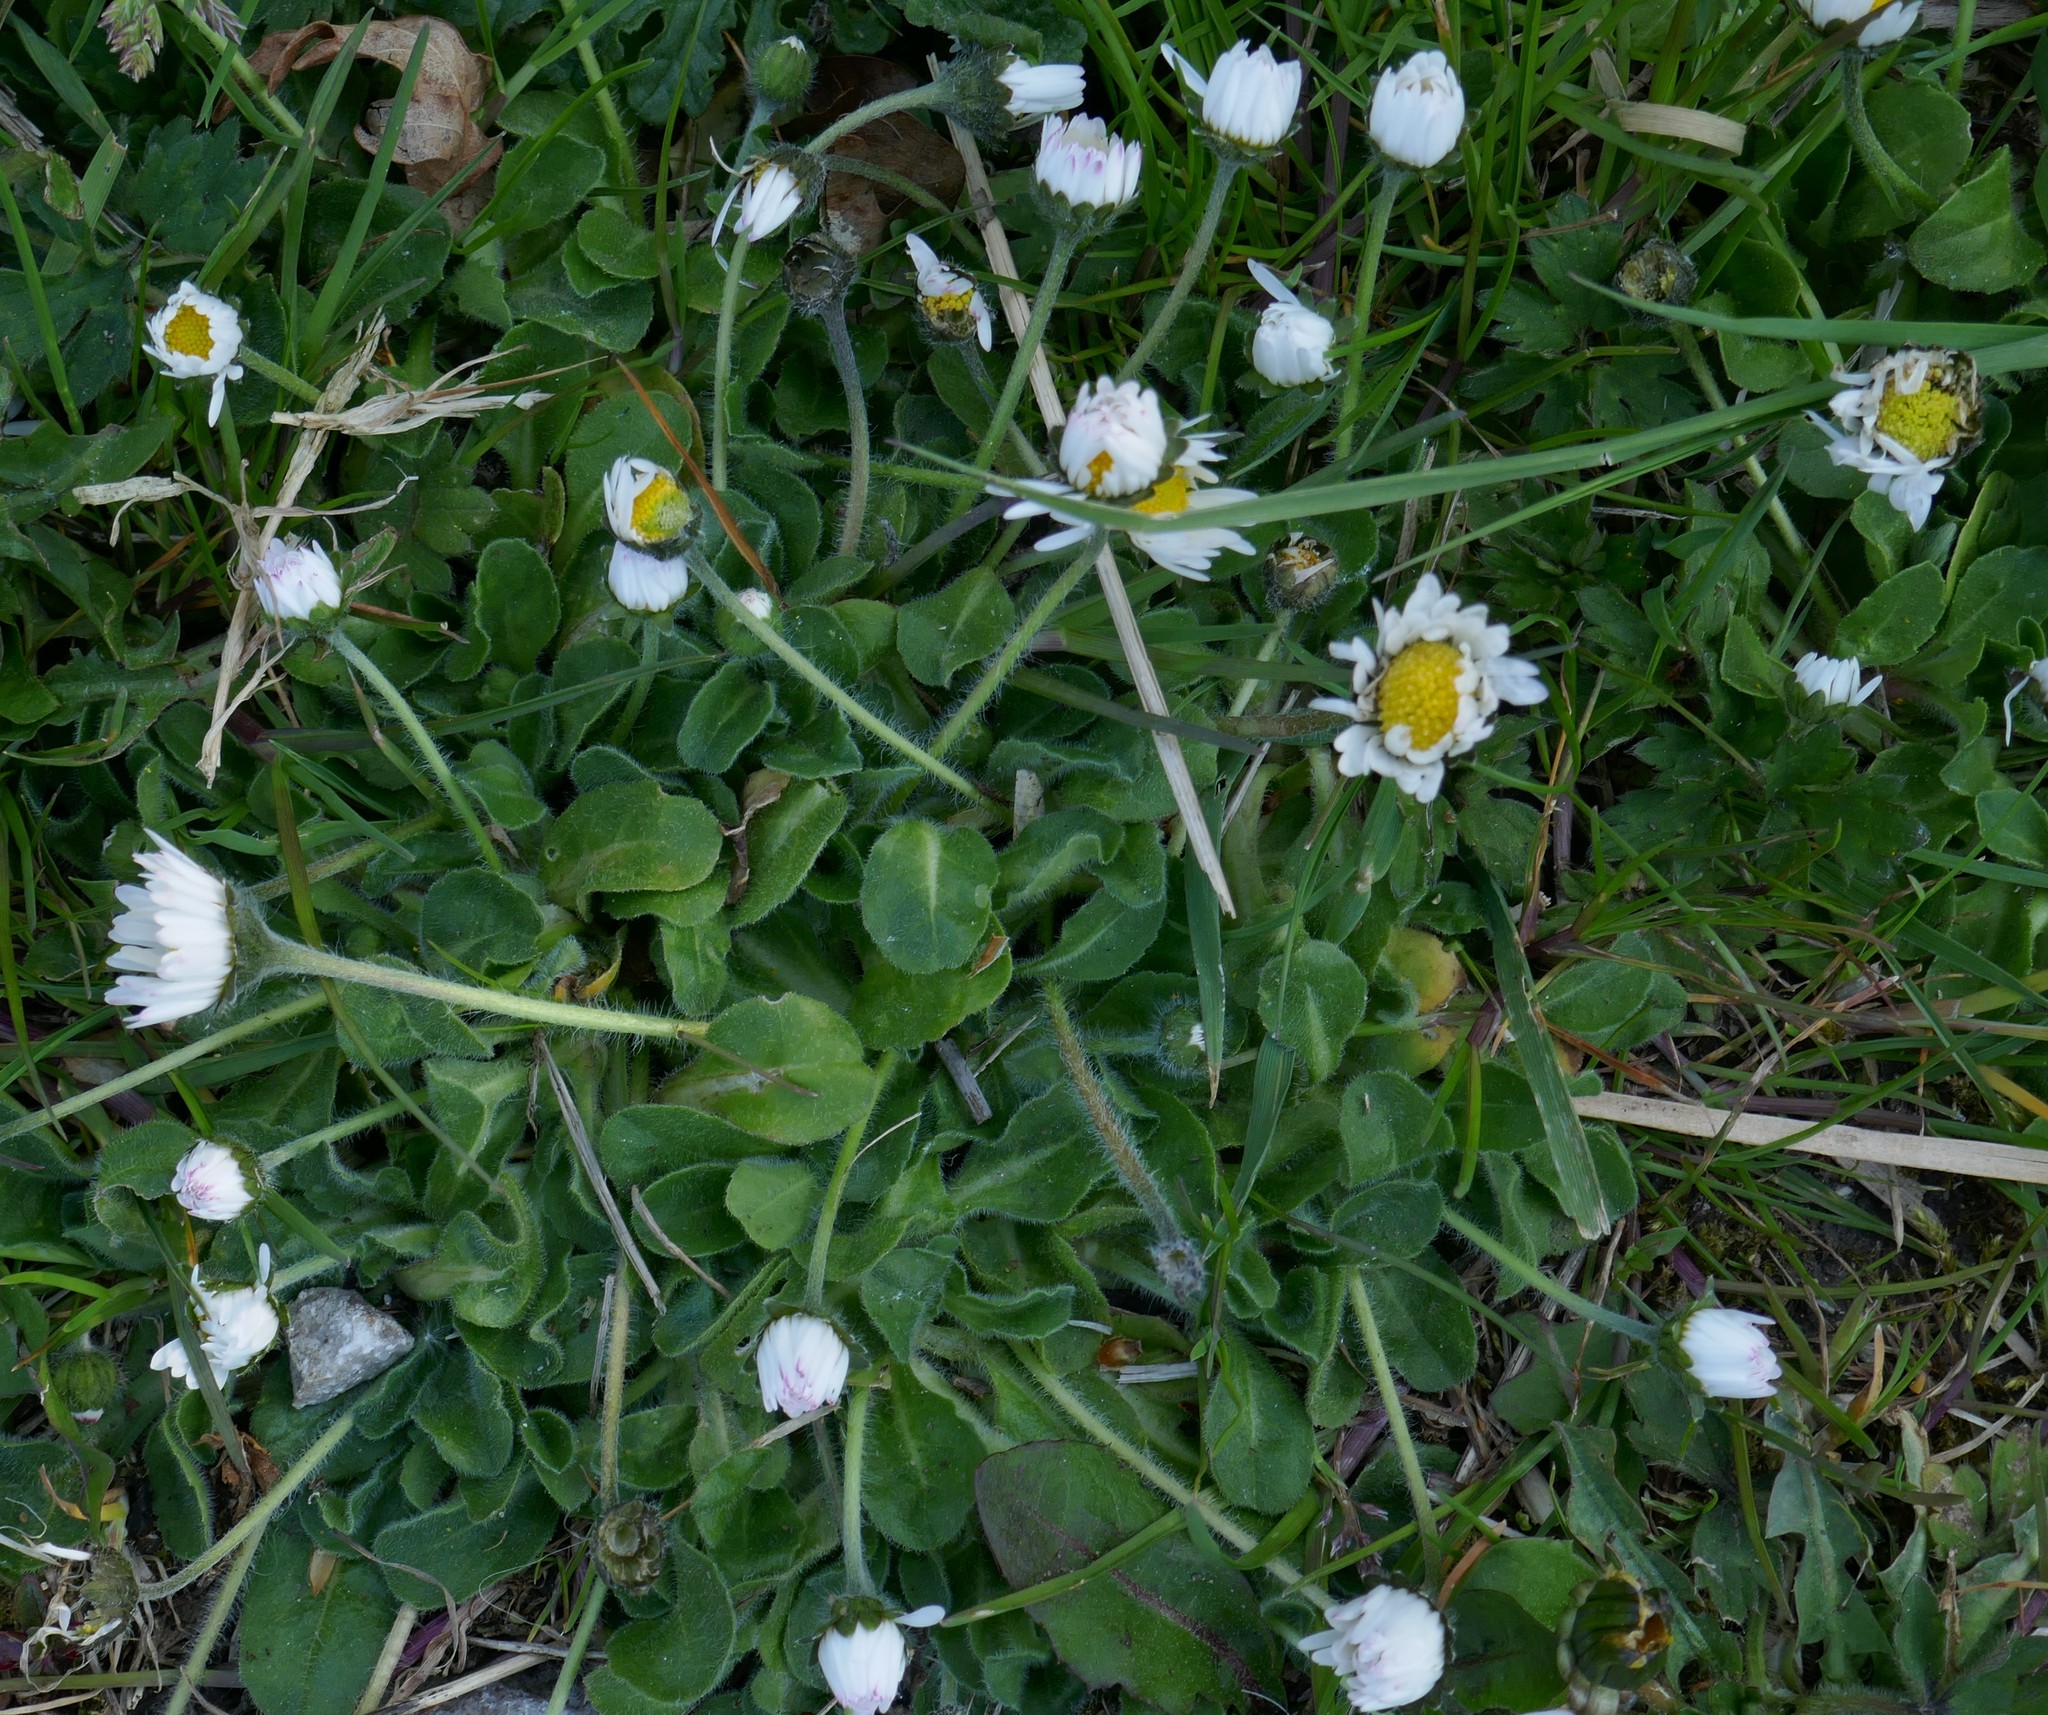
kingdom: Plantae
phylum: Tracheophyta
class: Magnoliopsida
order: Asterales
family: Asteraceae
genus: Bellis
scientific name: Bellis perennis
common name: Lawndaisy
